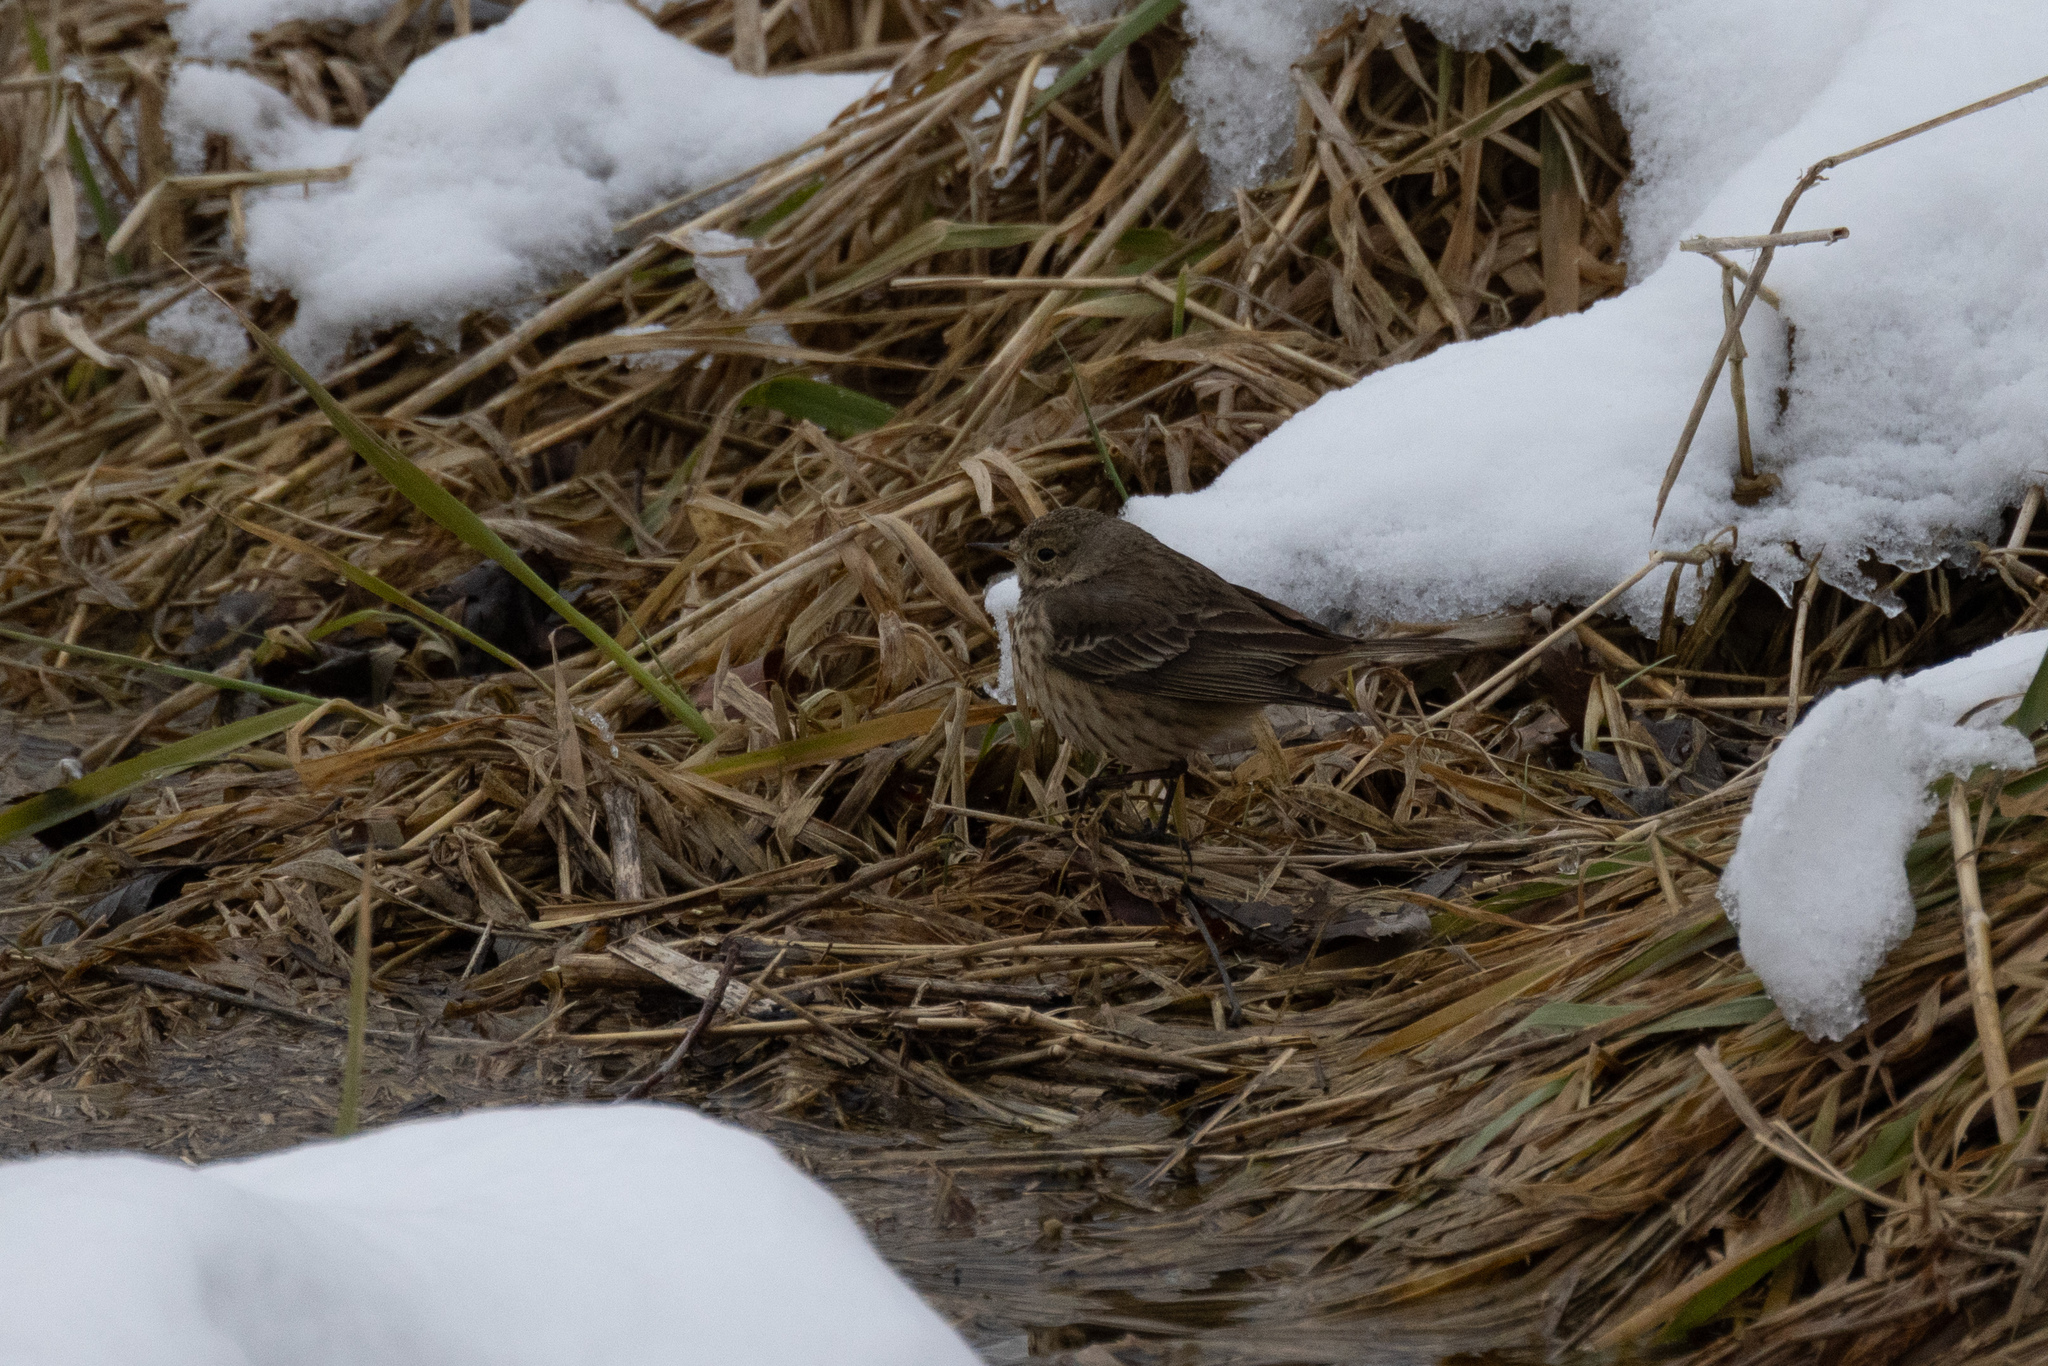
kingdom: Animalia
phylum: Chordata
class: Aves
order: Passeriformes
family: Motacillidae
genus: Anthus
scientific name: Anthus rubescens
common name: Buff-bellied pipit
